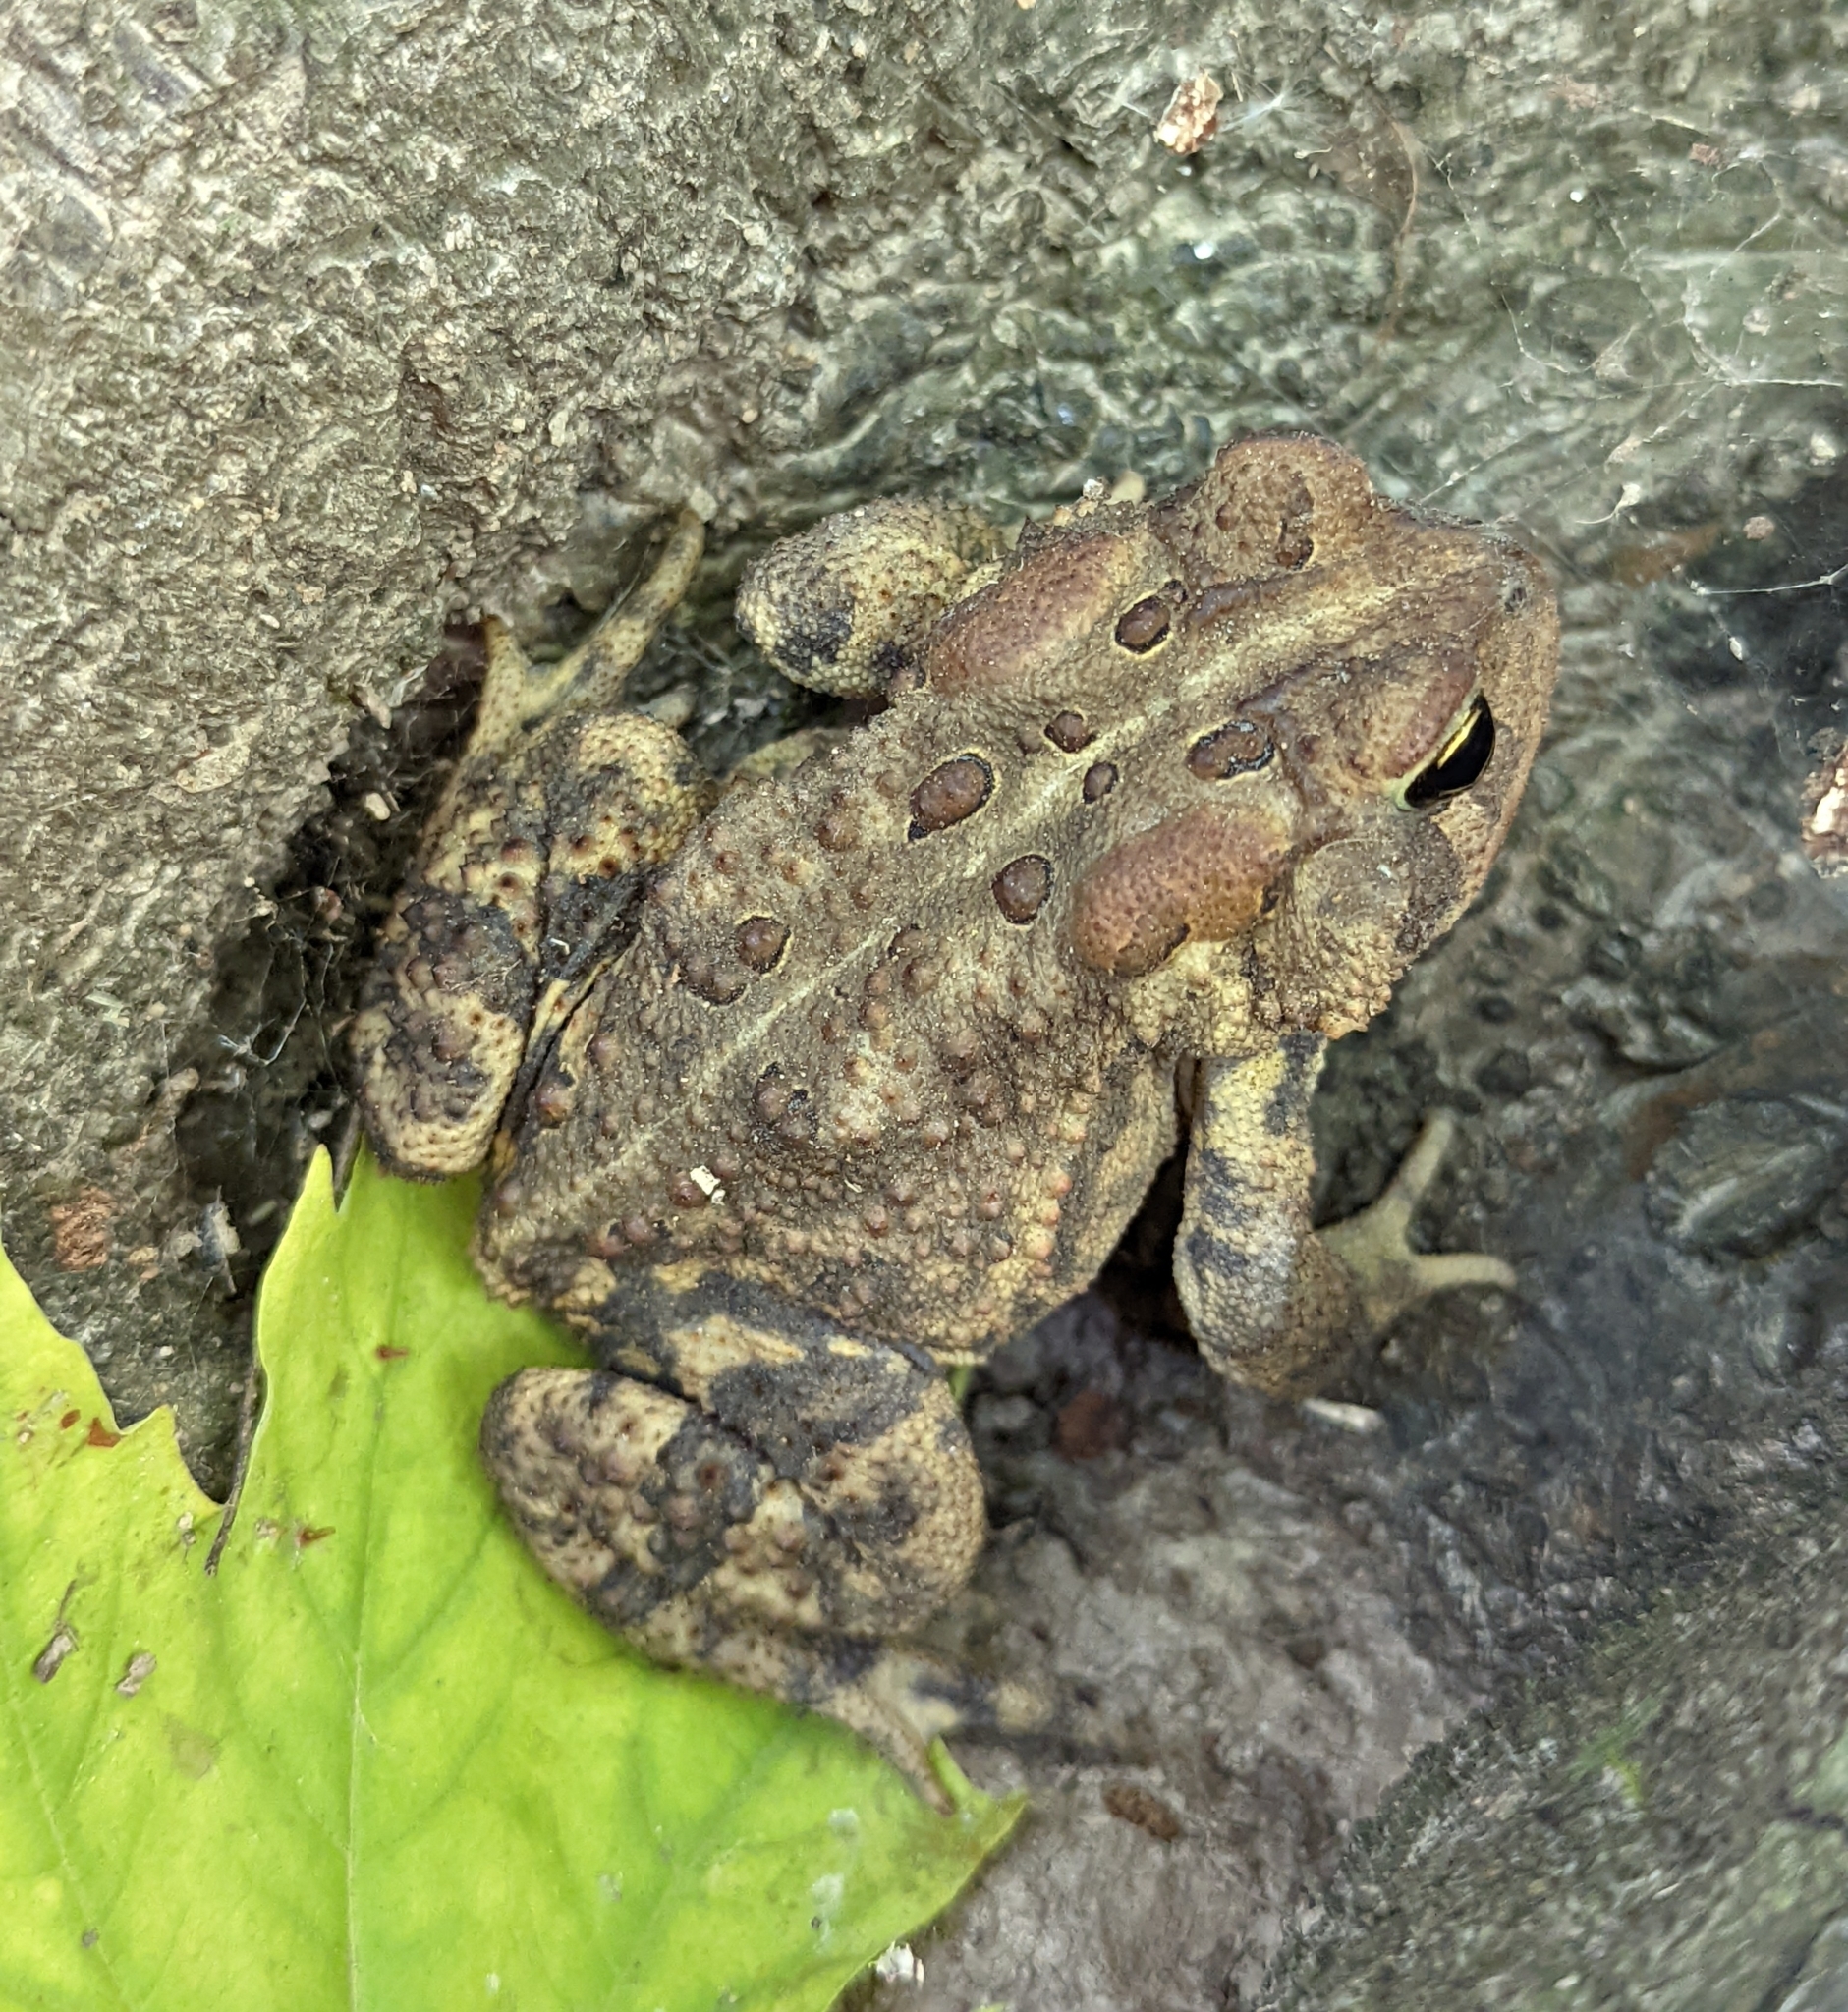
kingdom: Animalia
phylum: Chordata
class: Amphibia
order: Anura
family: Bufonidae
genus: Anaxyrus
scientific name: Anaxyrus americanus
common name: American toad
